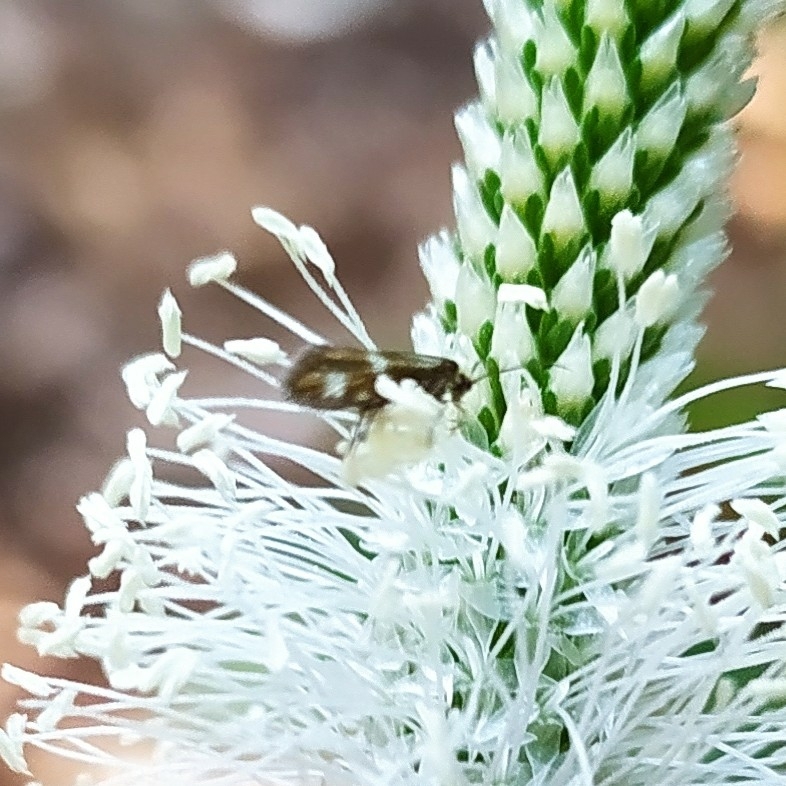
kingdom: Animalia
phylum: Arthropoda
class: Insecta
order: Lepidoptera
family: Micropterigidae
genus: Micropterix
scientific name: Micropterix maschukella
